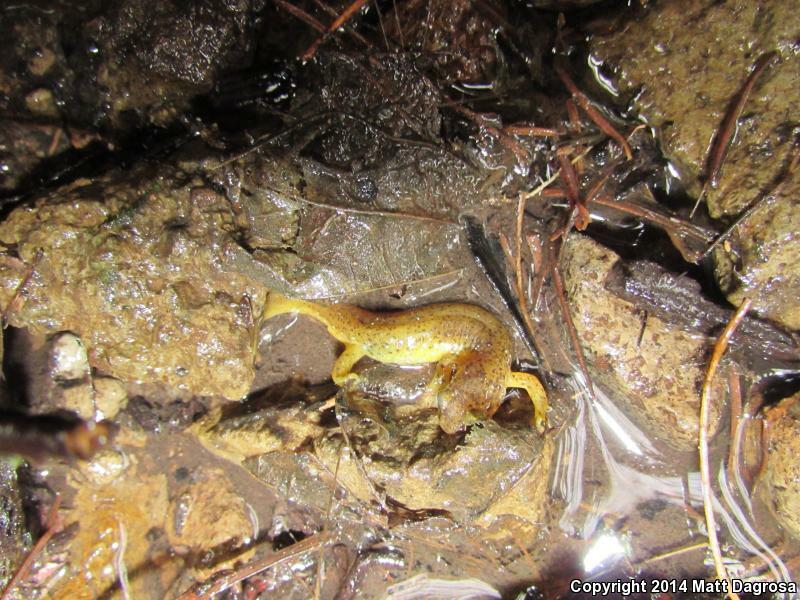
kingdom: Animalia
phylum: Chordata
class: Amphibia
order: Caudata
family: Rhyacotritonidae
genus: Rhyacotriton
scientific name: Rhyacotriton cascadae
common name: Cascade torrent salamander
